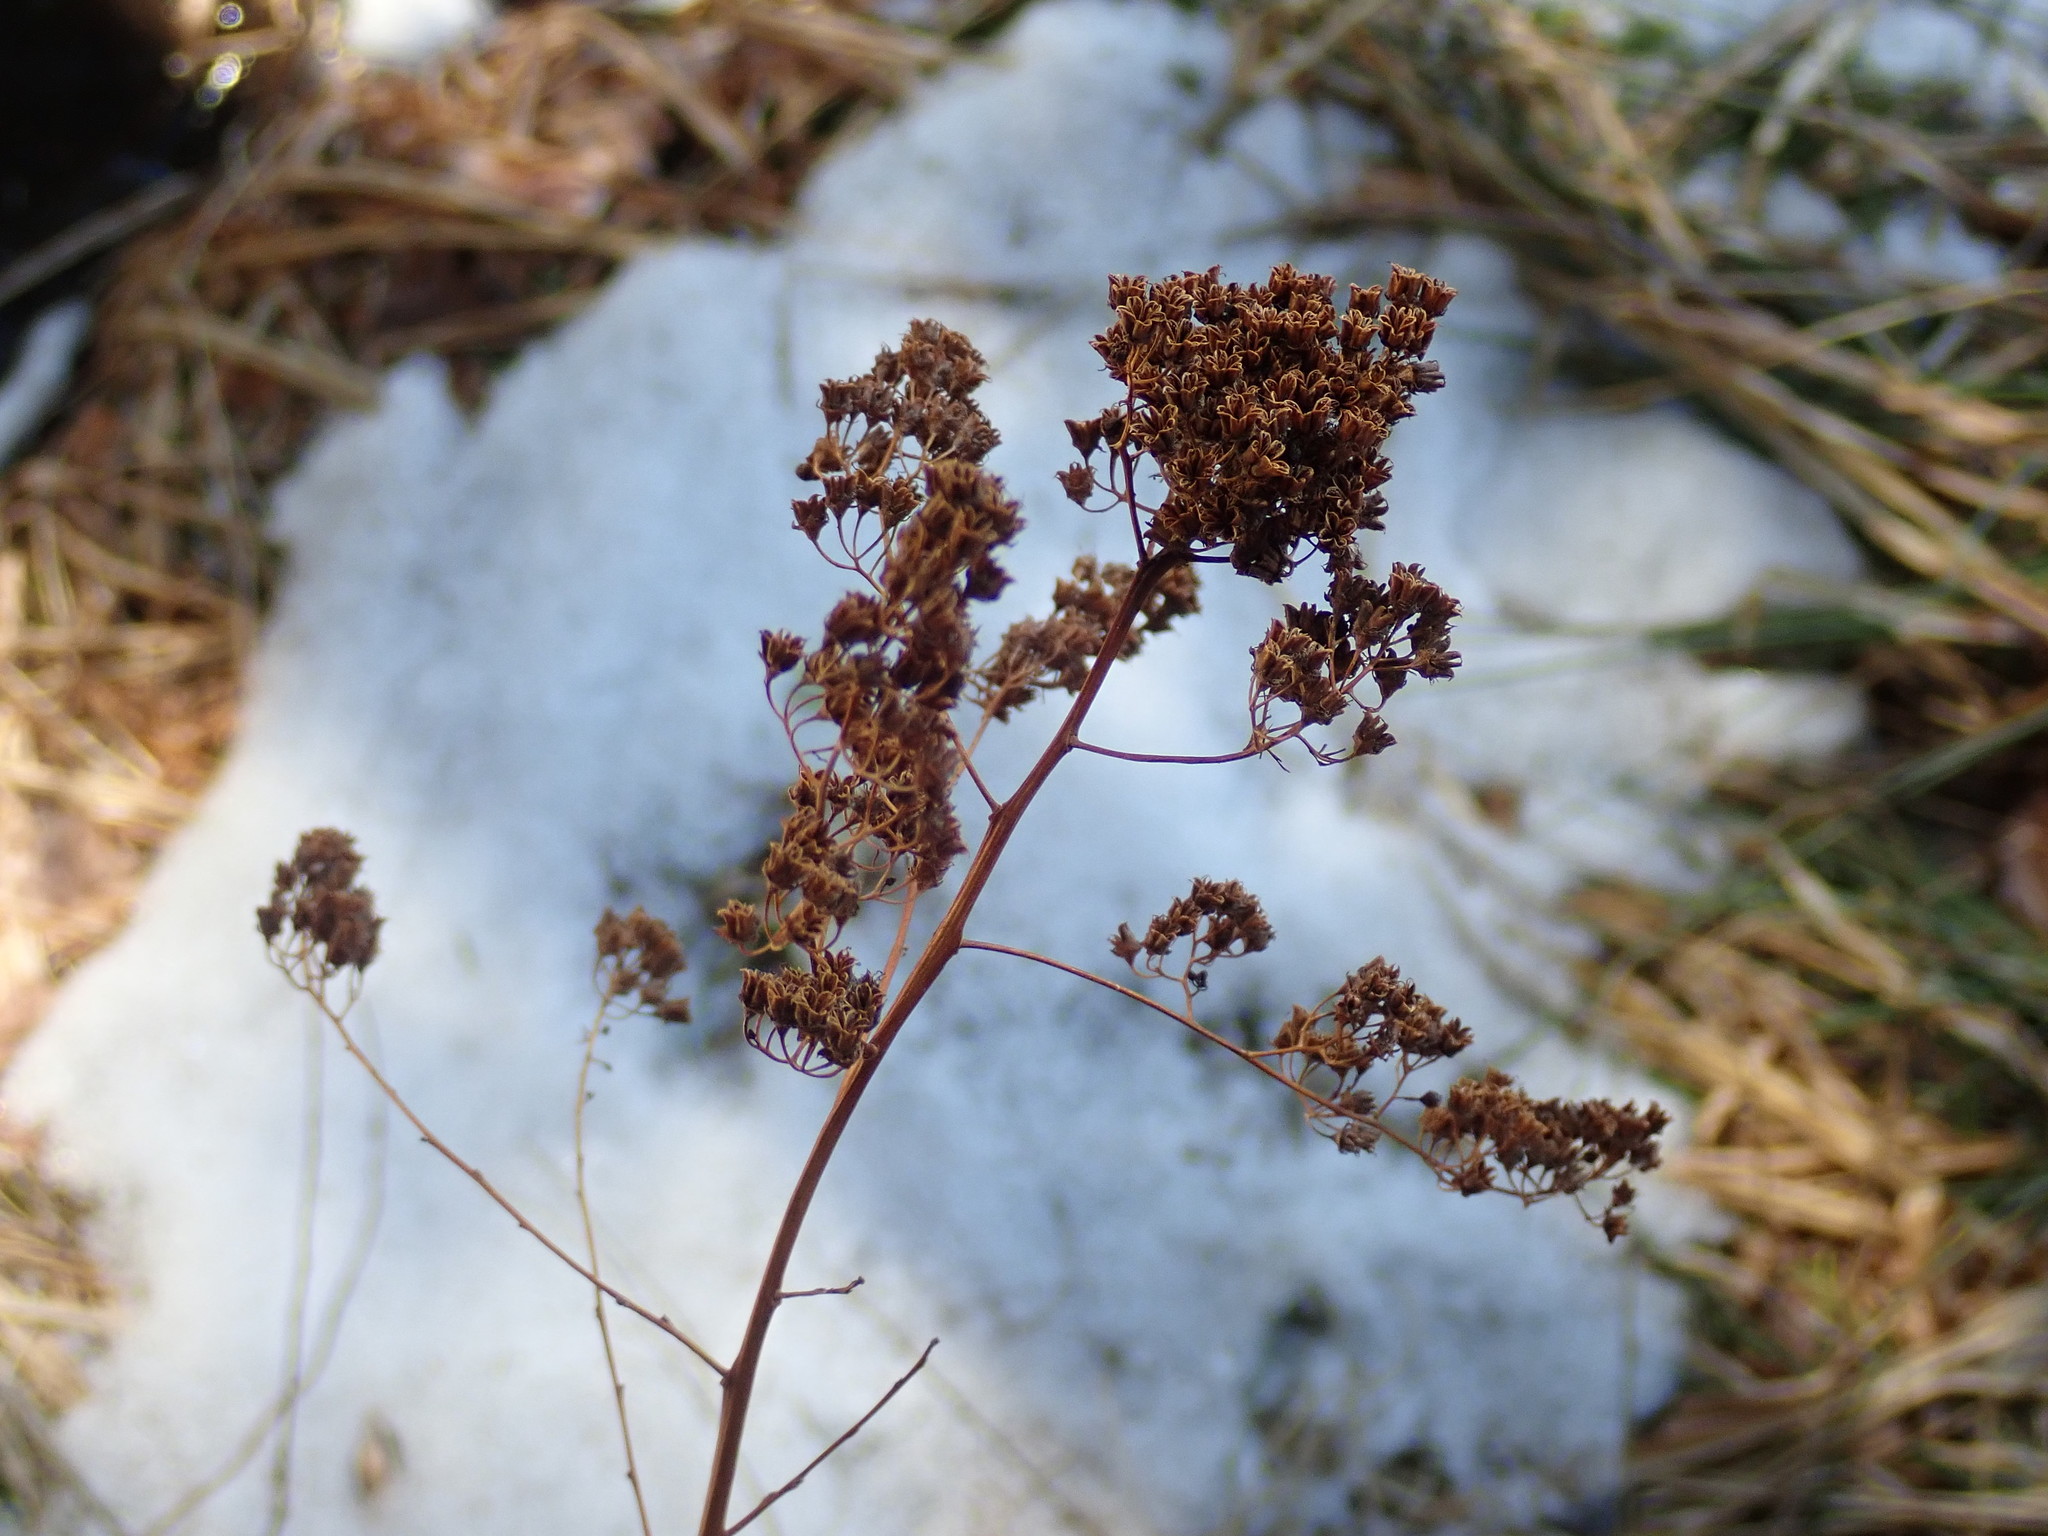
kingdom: Plantae
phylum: Tracheophyta
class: Magnoliopsida
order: Rosales
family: Rosaceae
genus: Spiraea
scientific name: Spiraea alba
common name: Pale bridewort
